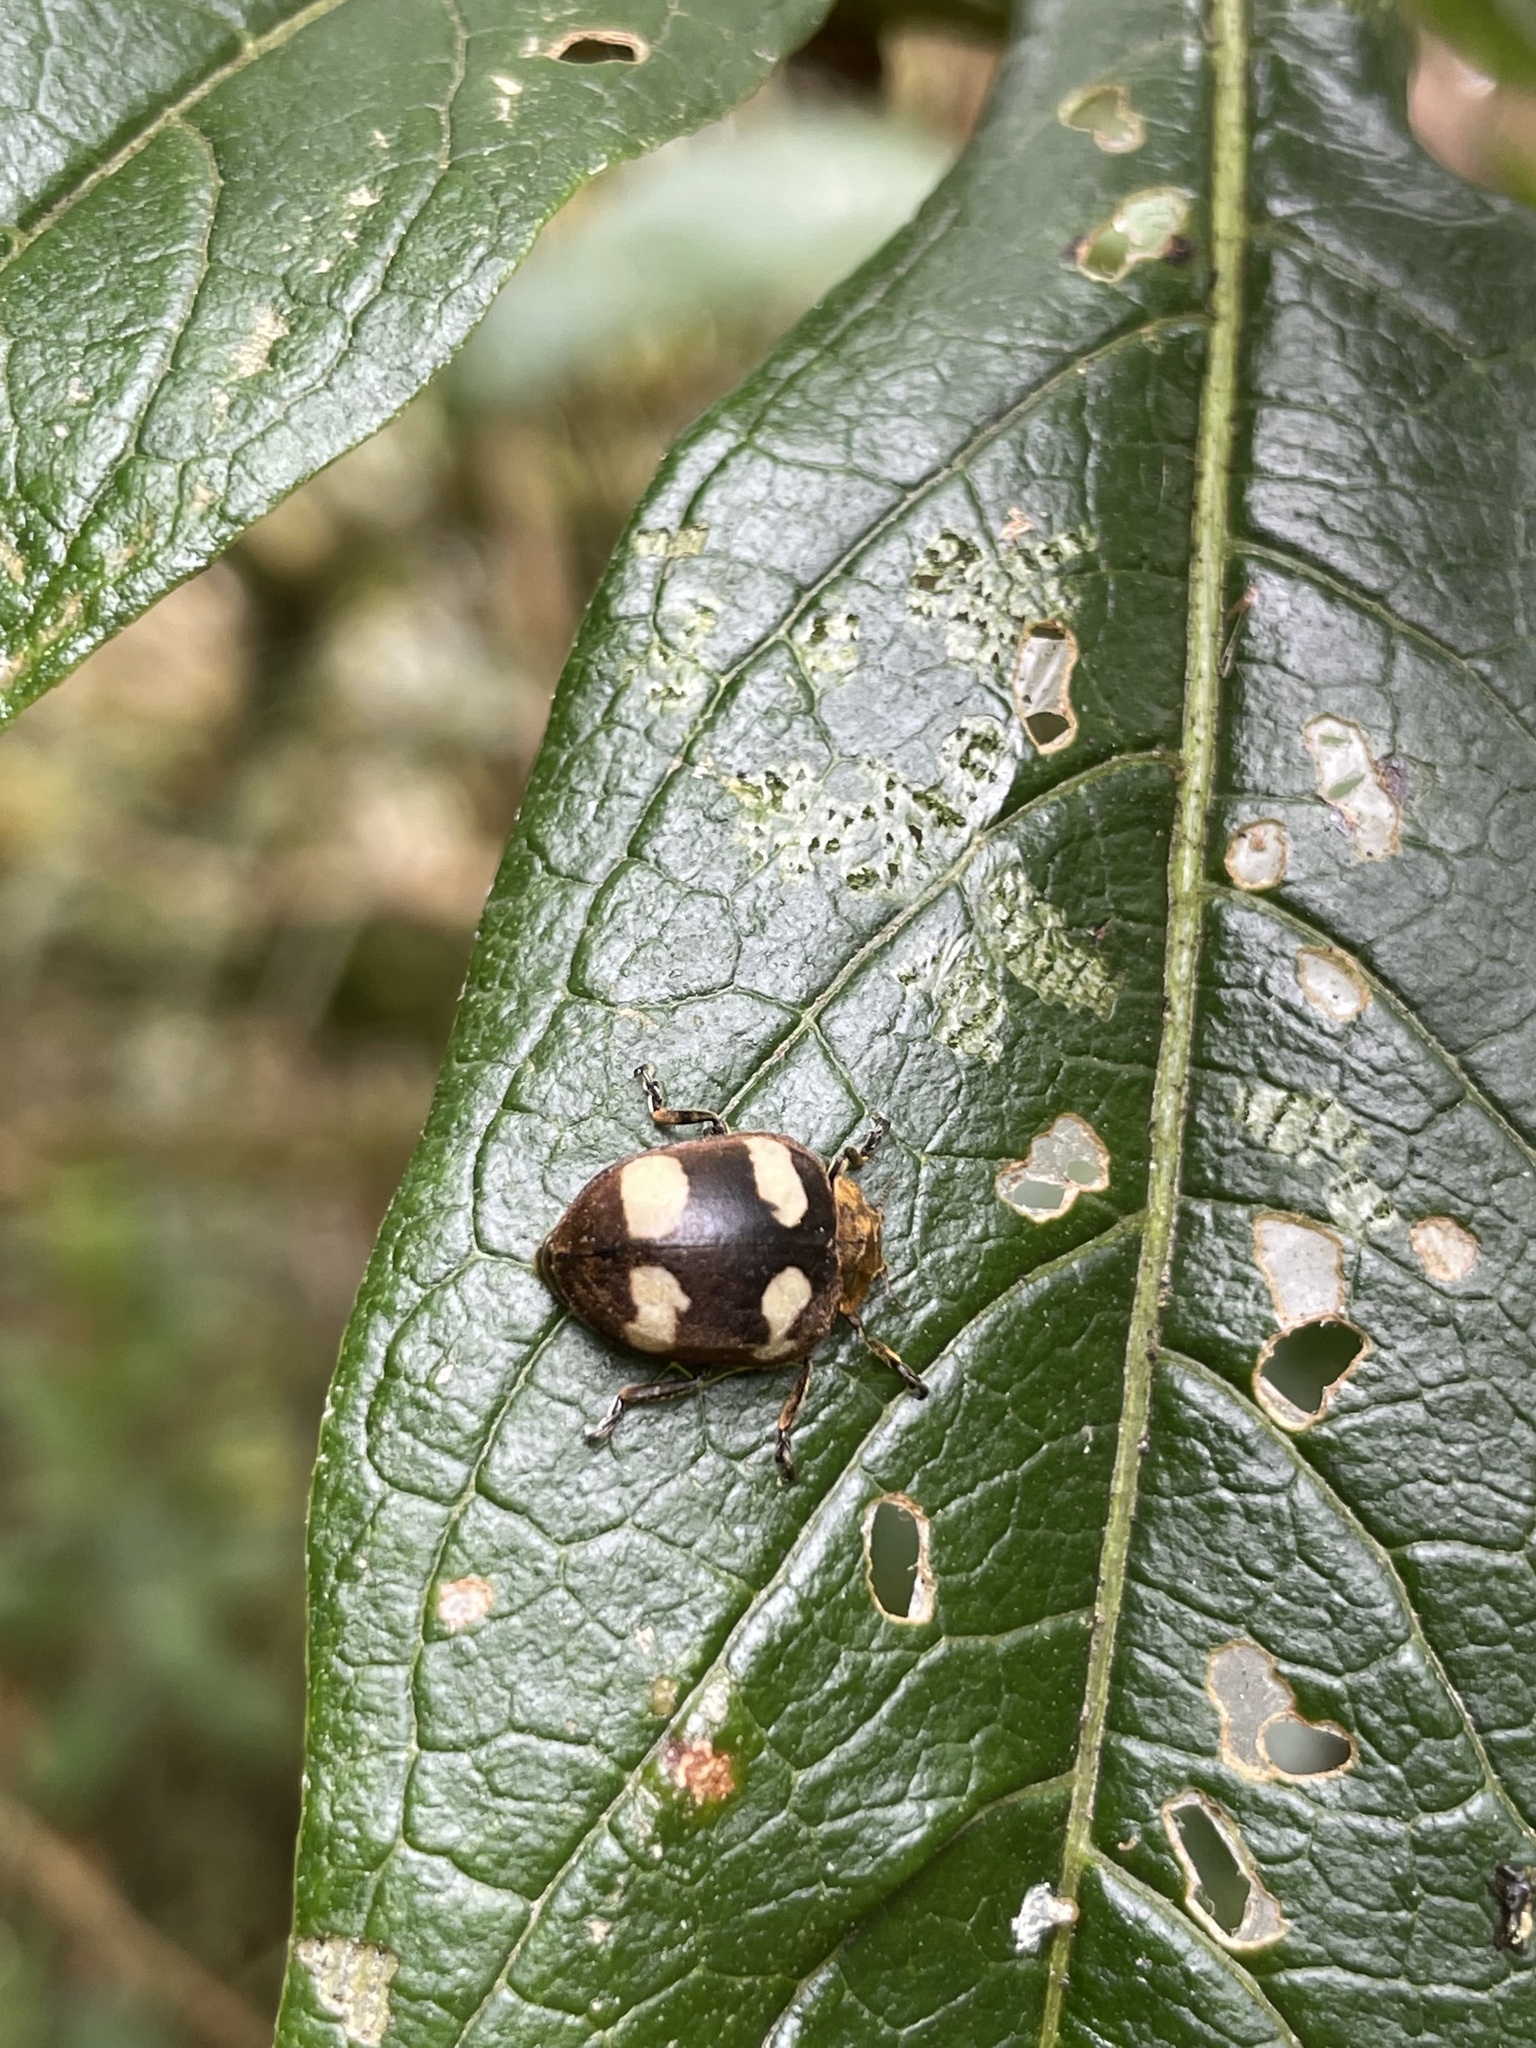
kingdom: Animalia
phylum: Arthropoda
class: Insecta
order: Coleoptera
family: Coccinellidae
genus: Epilachna
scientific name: Epilachna
